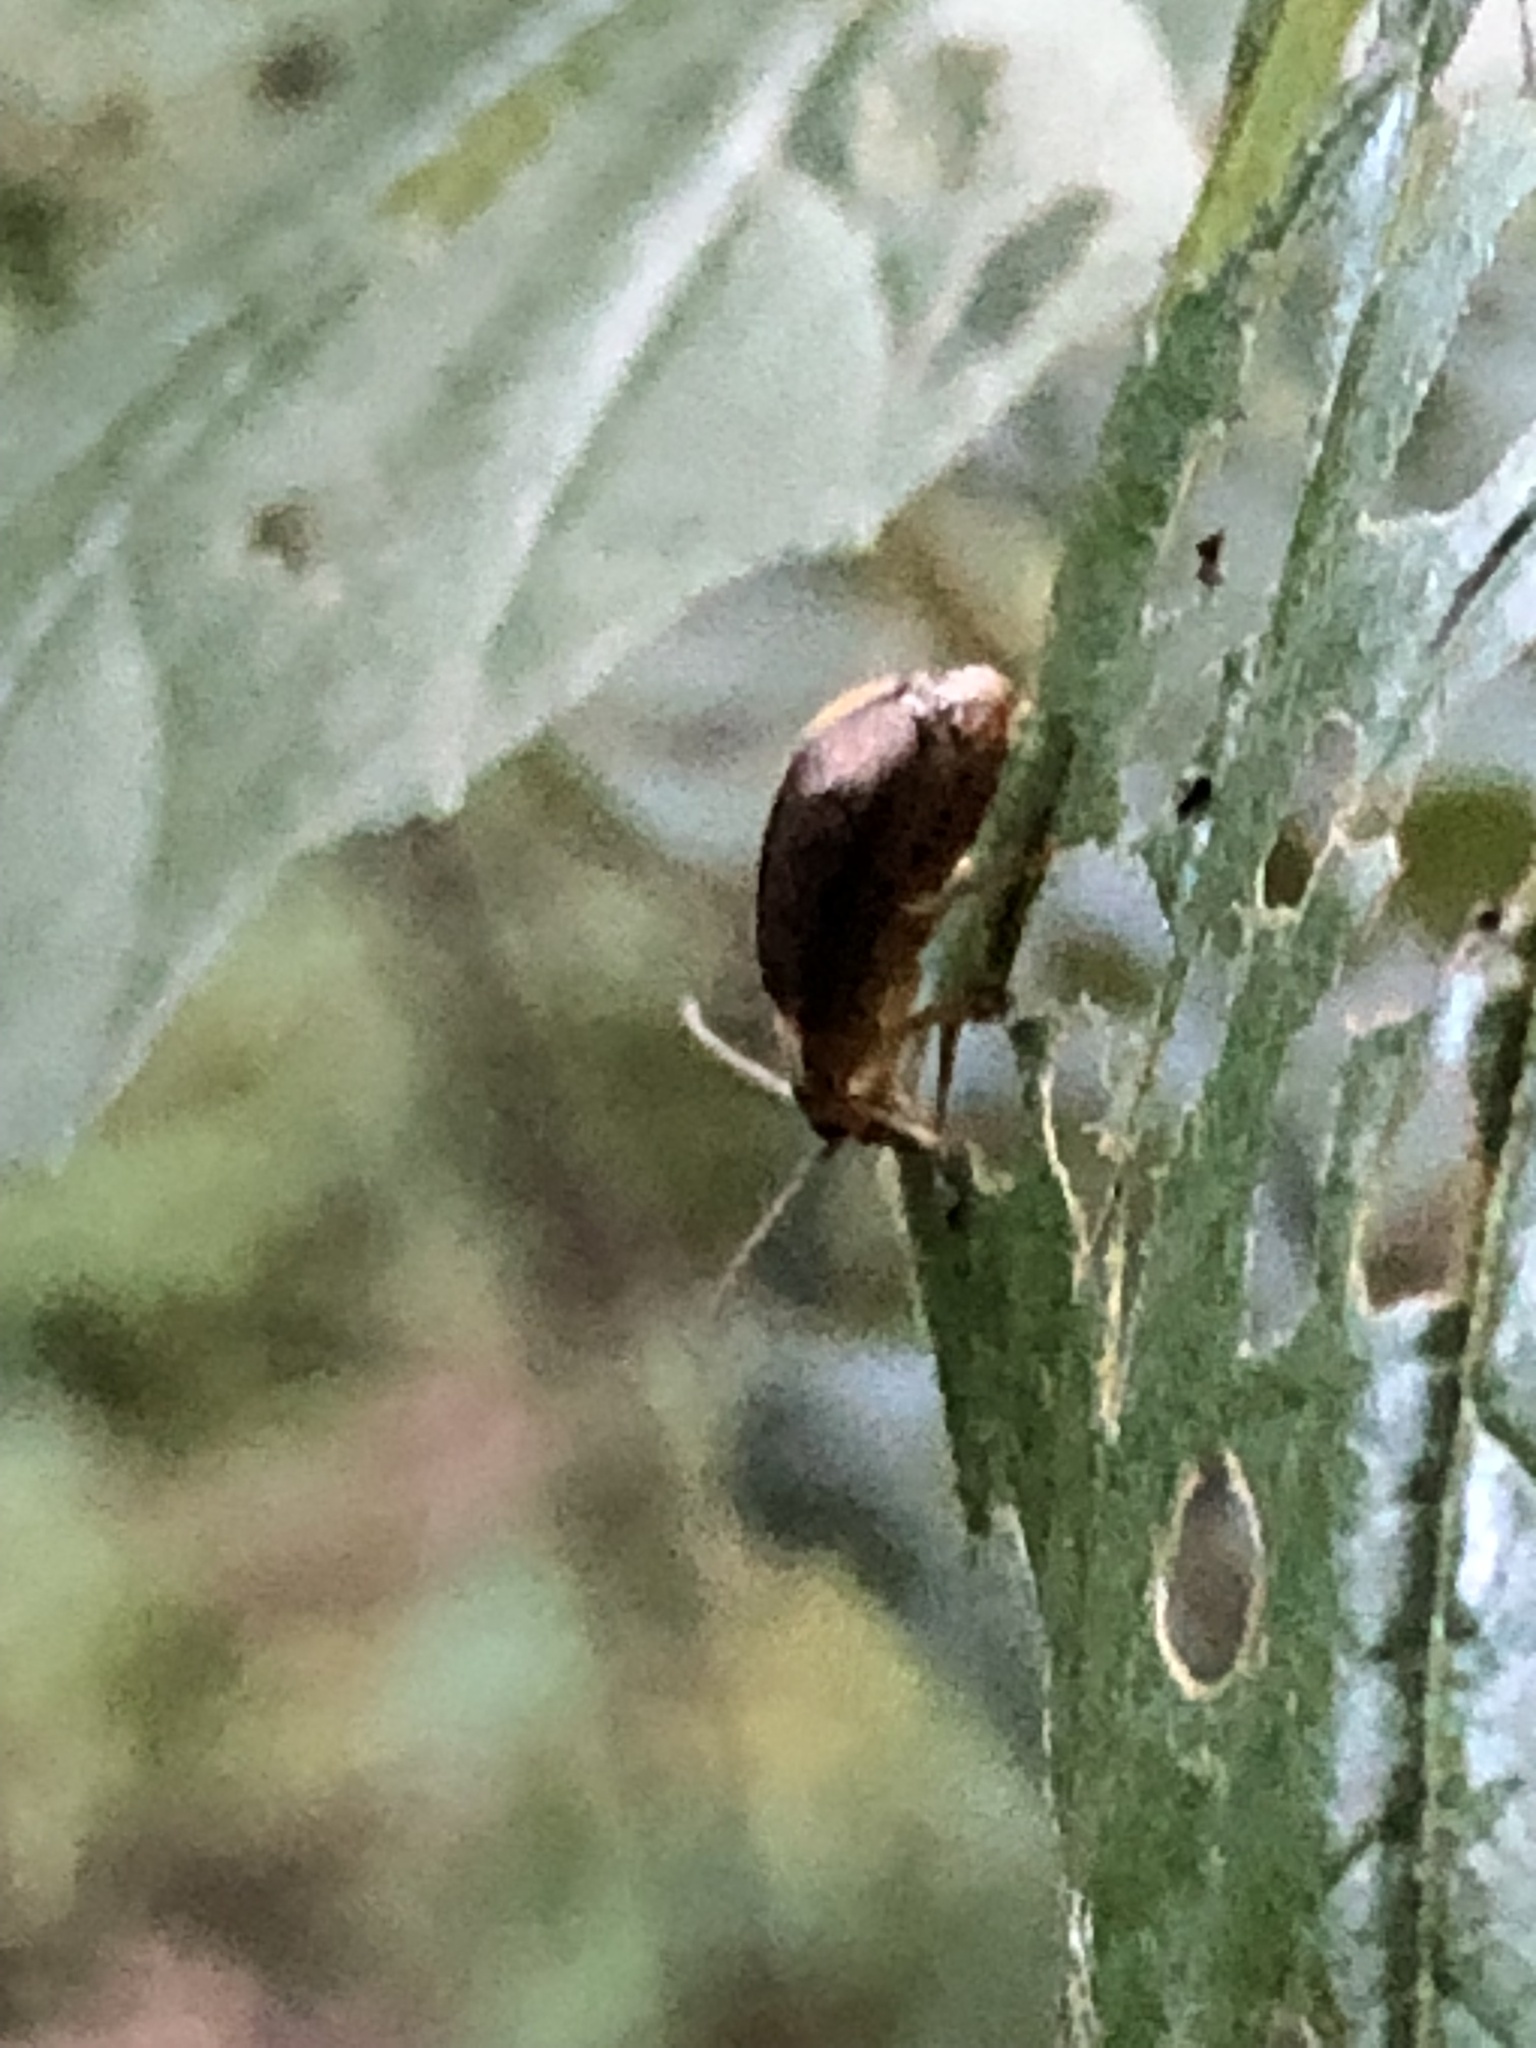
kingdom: Animalia
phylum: Arthropoda
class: Insecta
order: Coleoptera
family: Chrysomelidae
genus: Pyrrhalta
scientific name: Pyrrhalta viburni
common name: Guelder-rose leaf beetle
